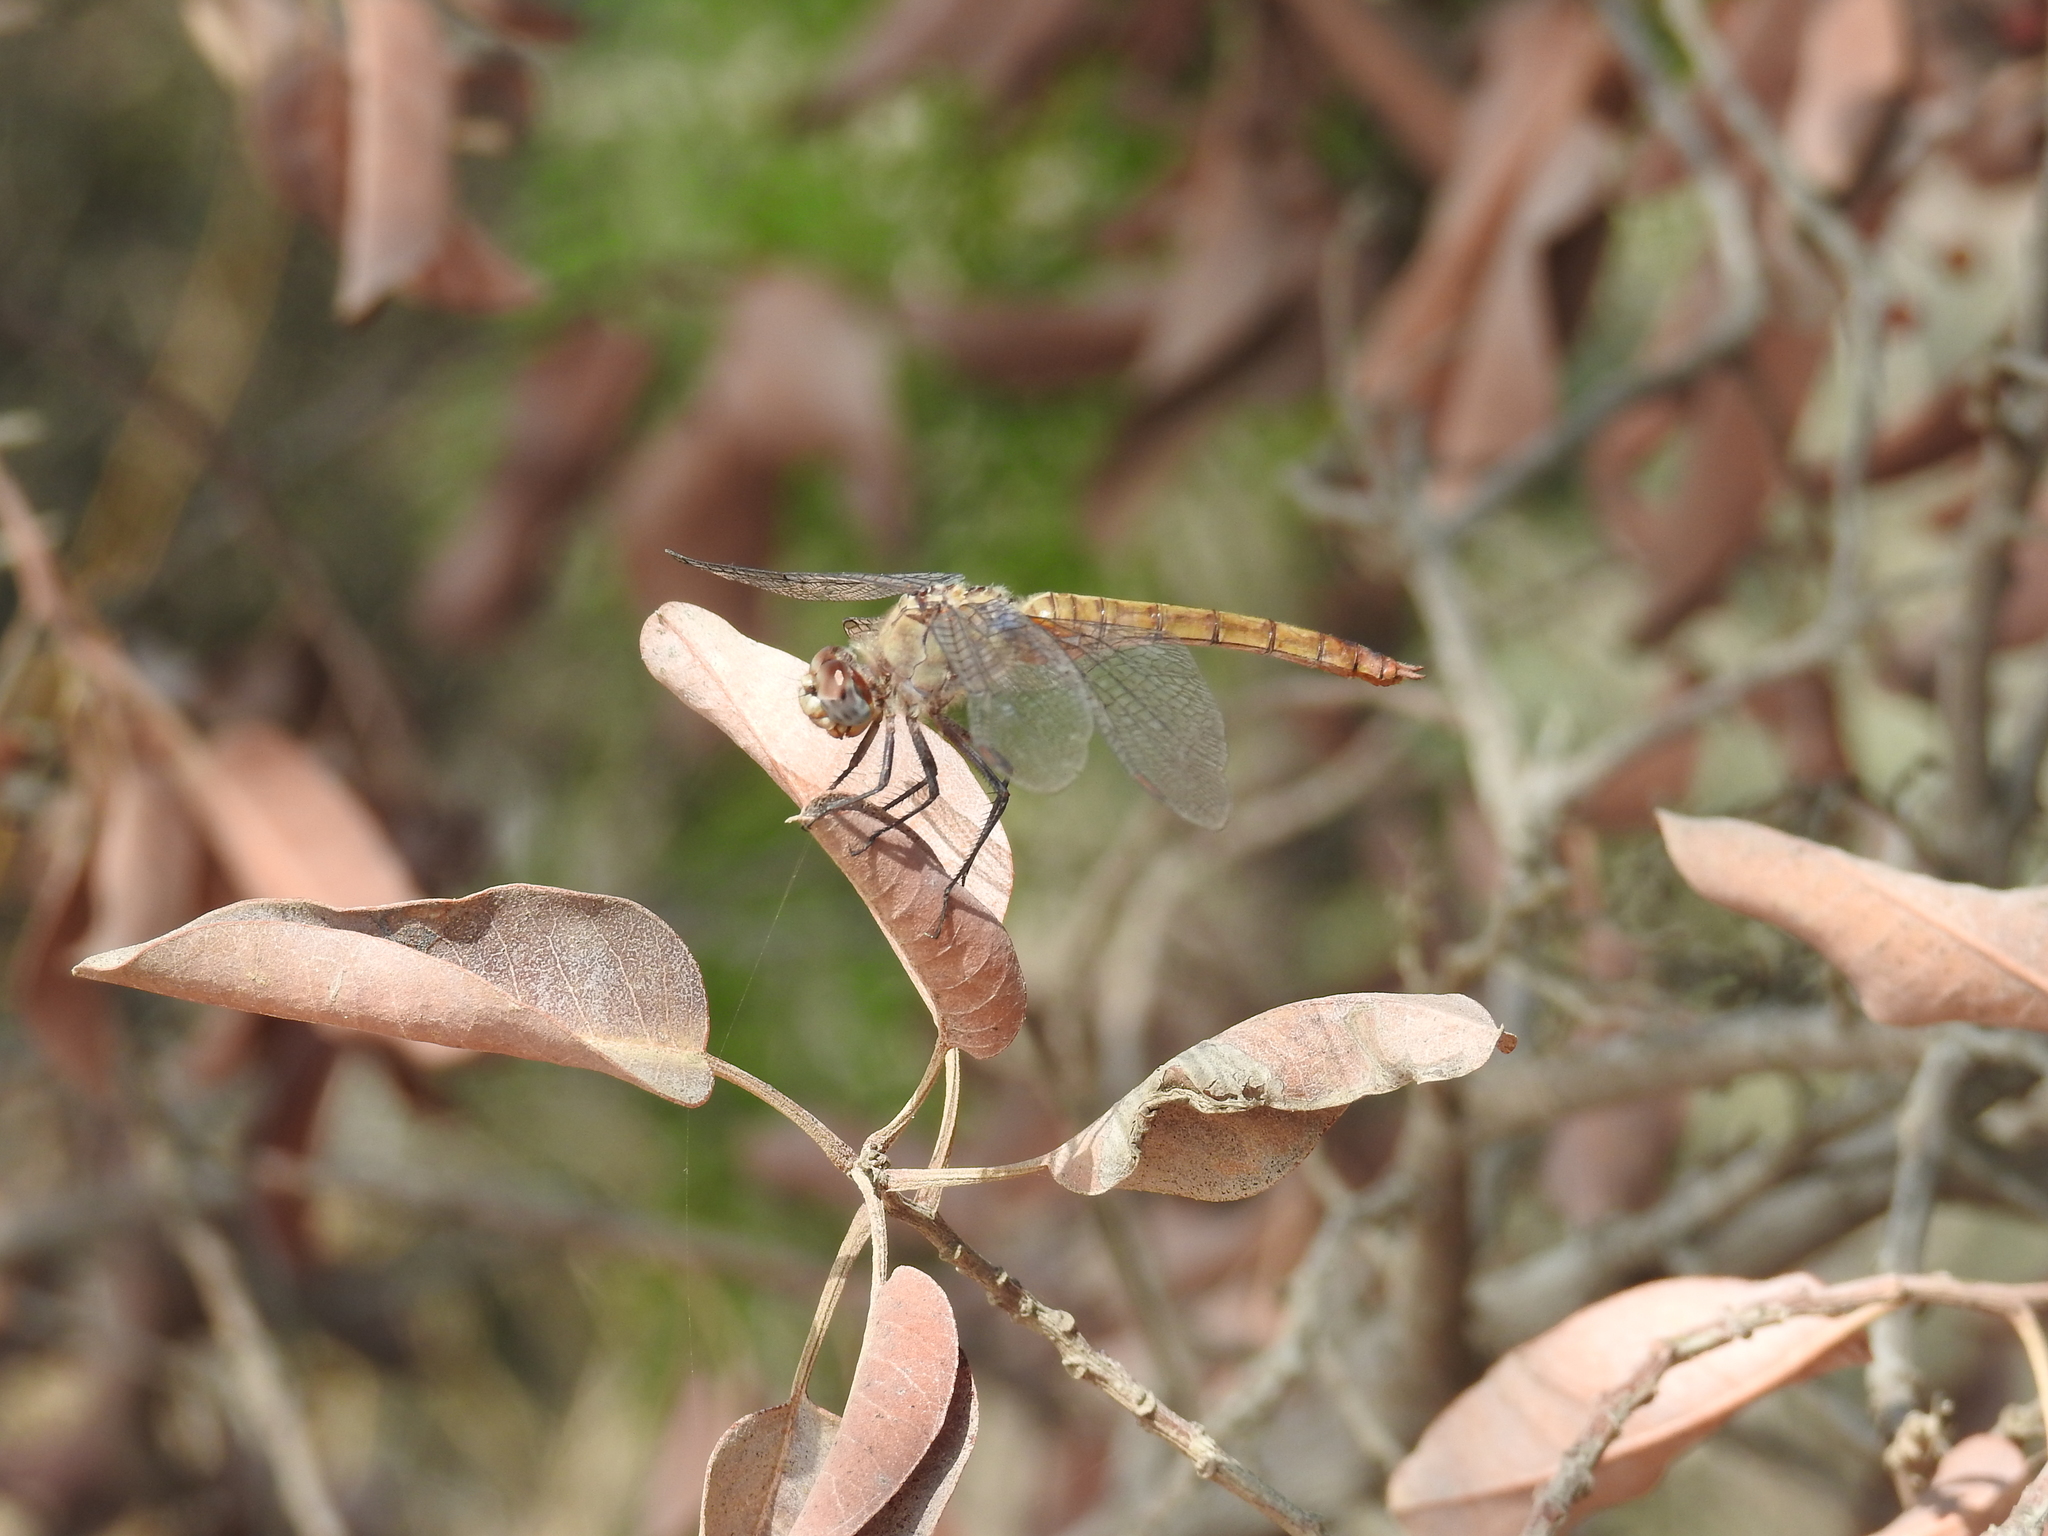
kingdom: Animalia
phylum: Arthropoda
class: Insecta
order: Odonata
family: Libellulidae
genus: Brachymesia
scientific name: Brachymesia furcata
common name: Red-taled pennant
